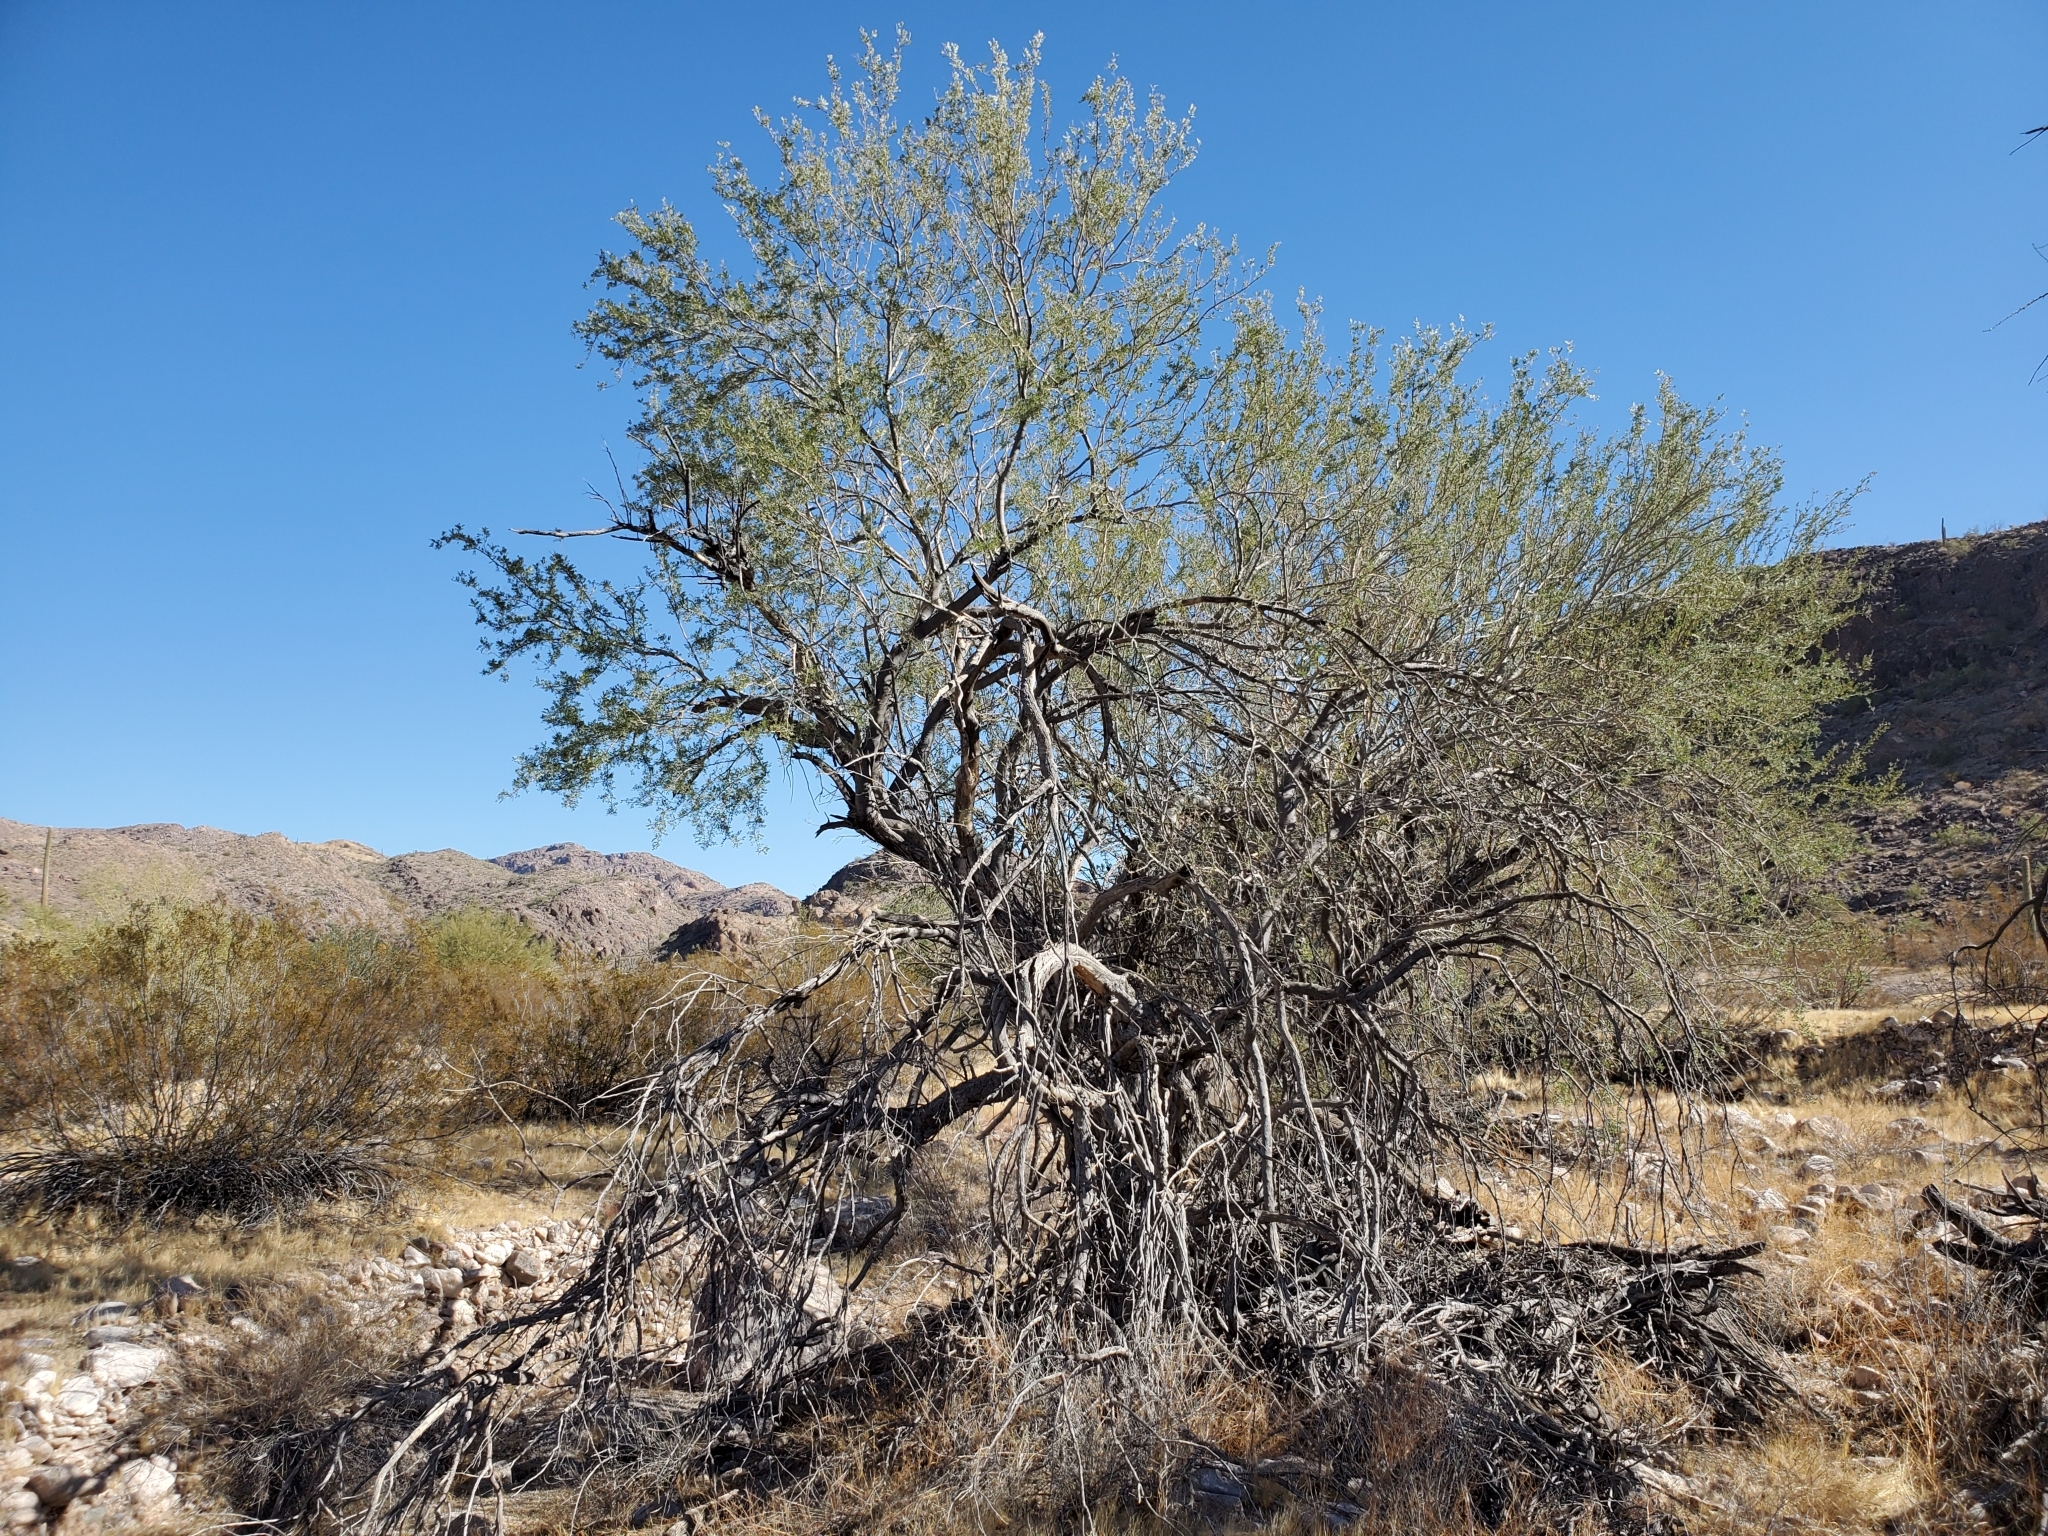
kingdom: Plantae
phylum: Tracheophyta
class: Magnoliopsida
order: Fabales
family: Fabaceae
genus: Olneya
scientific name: Olneya tesota
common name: Desert ironwood
